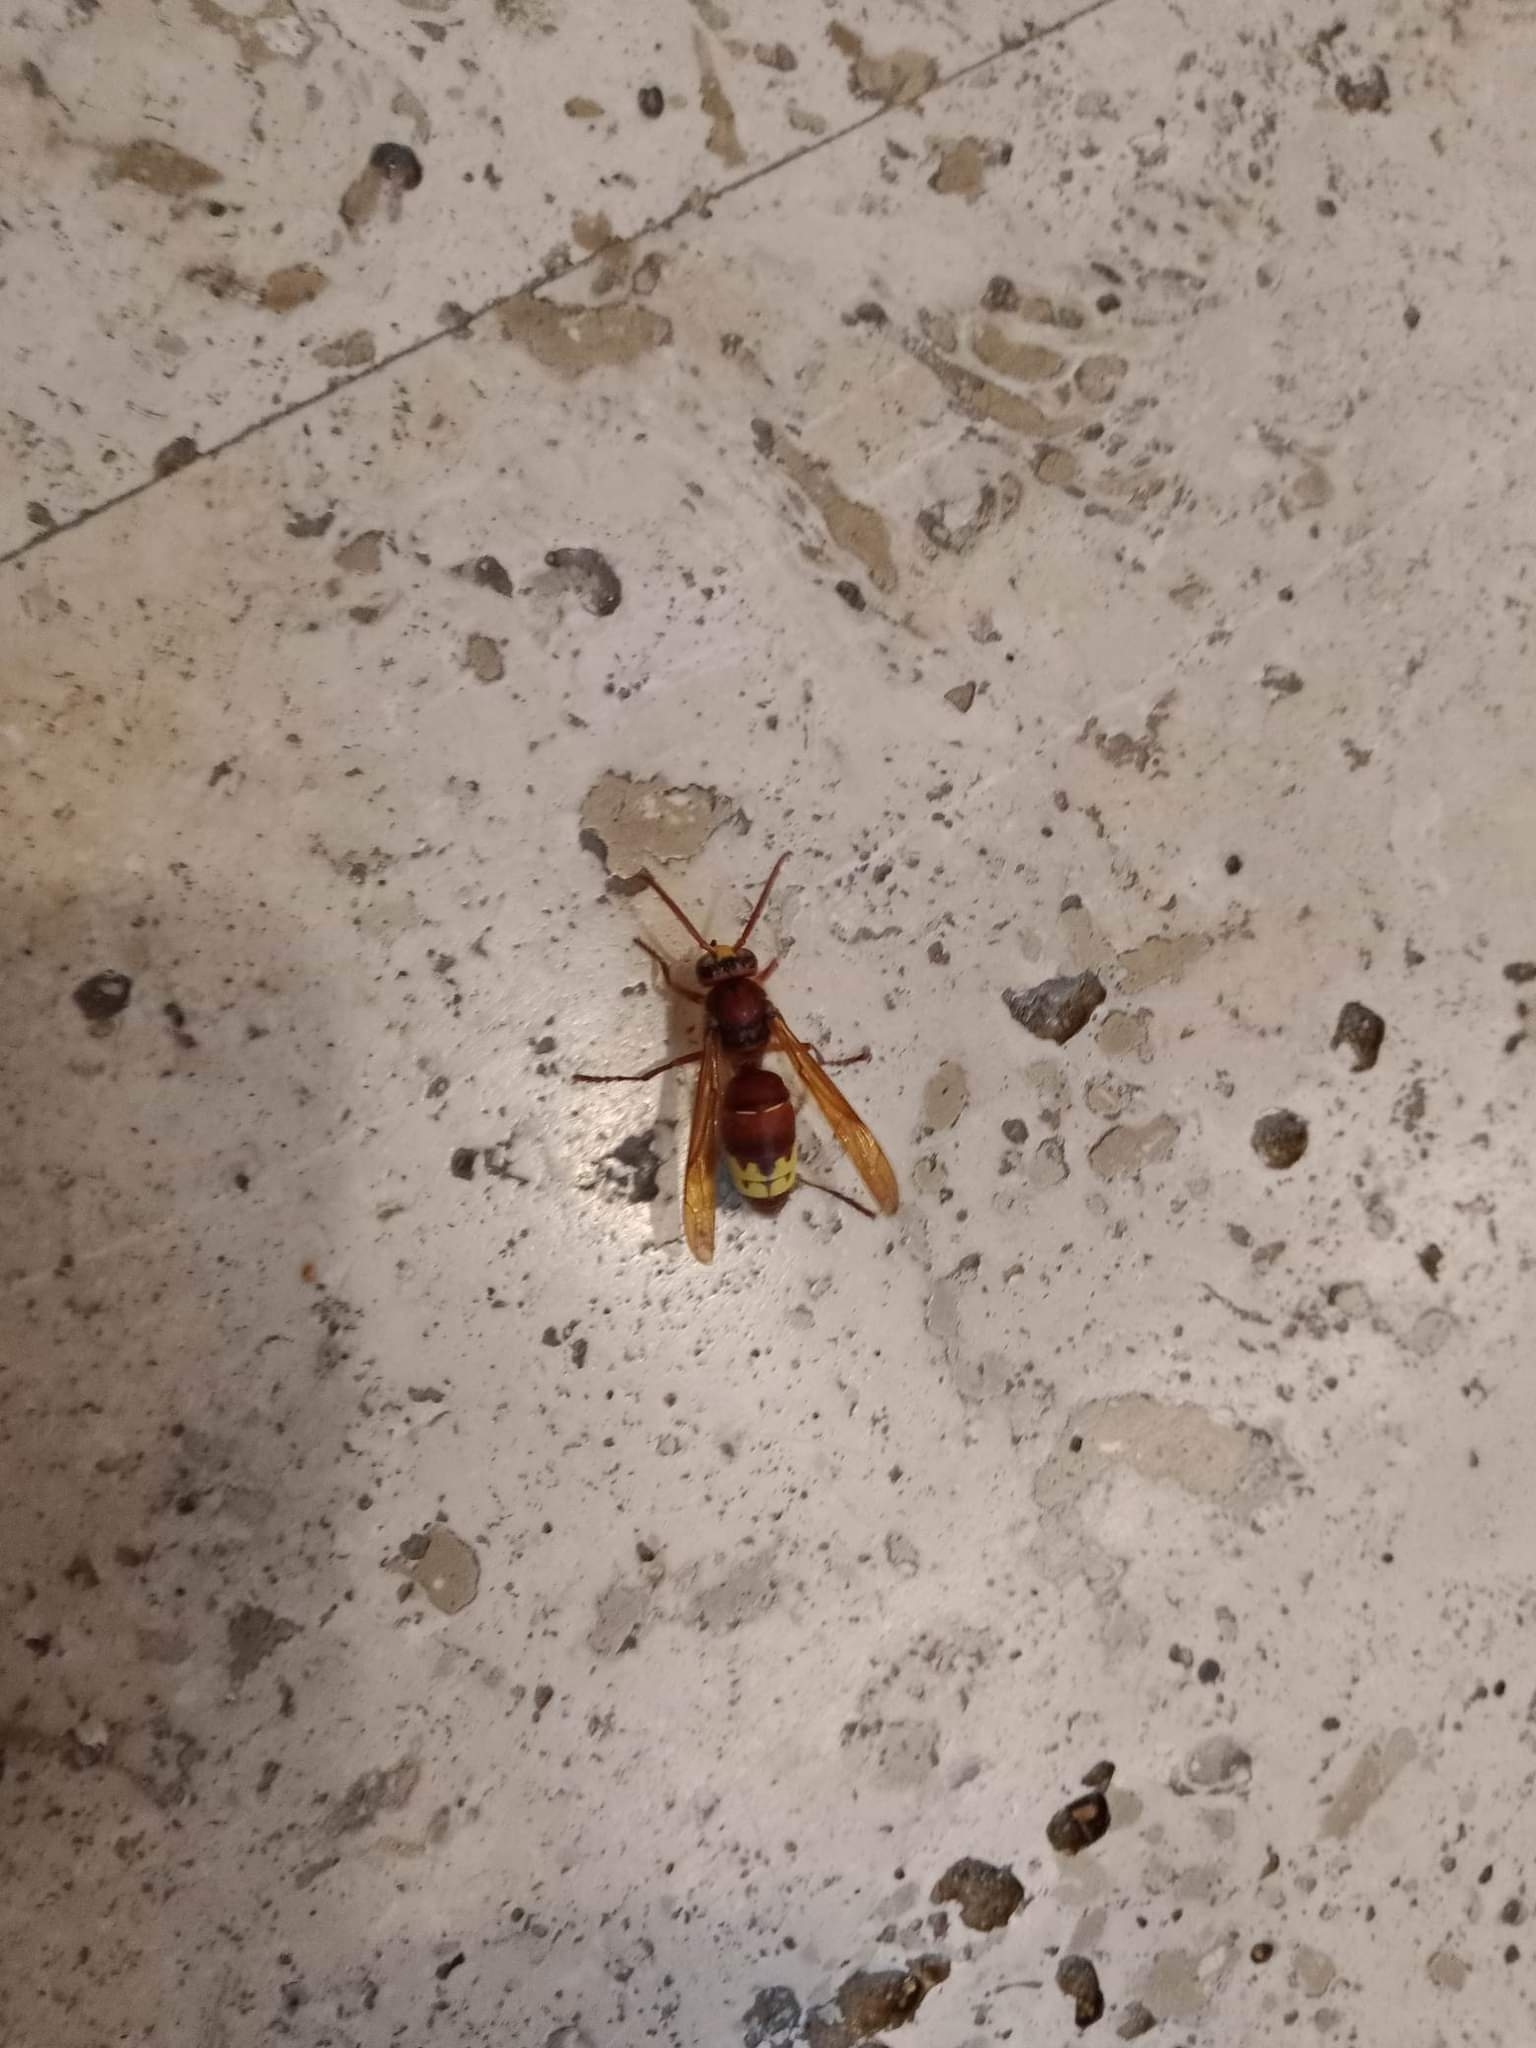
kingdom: Animalia
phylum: Arthropoda
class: Insecta
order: Hymenoptera
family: Vespidae
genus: Vespa
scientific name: Vespa orientalis
